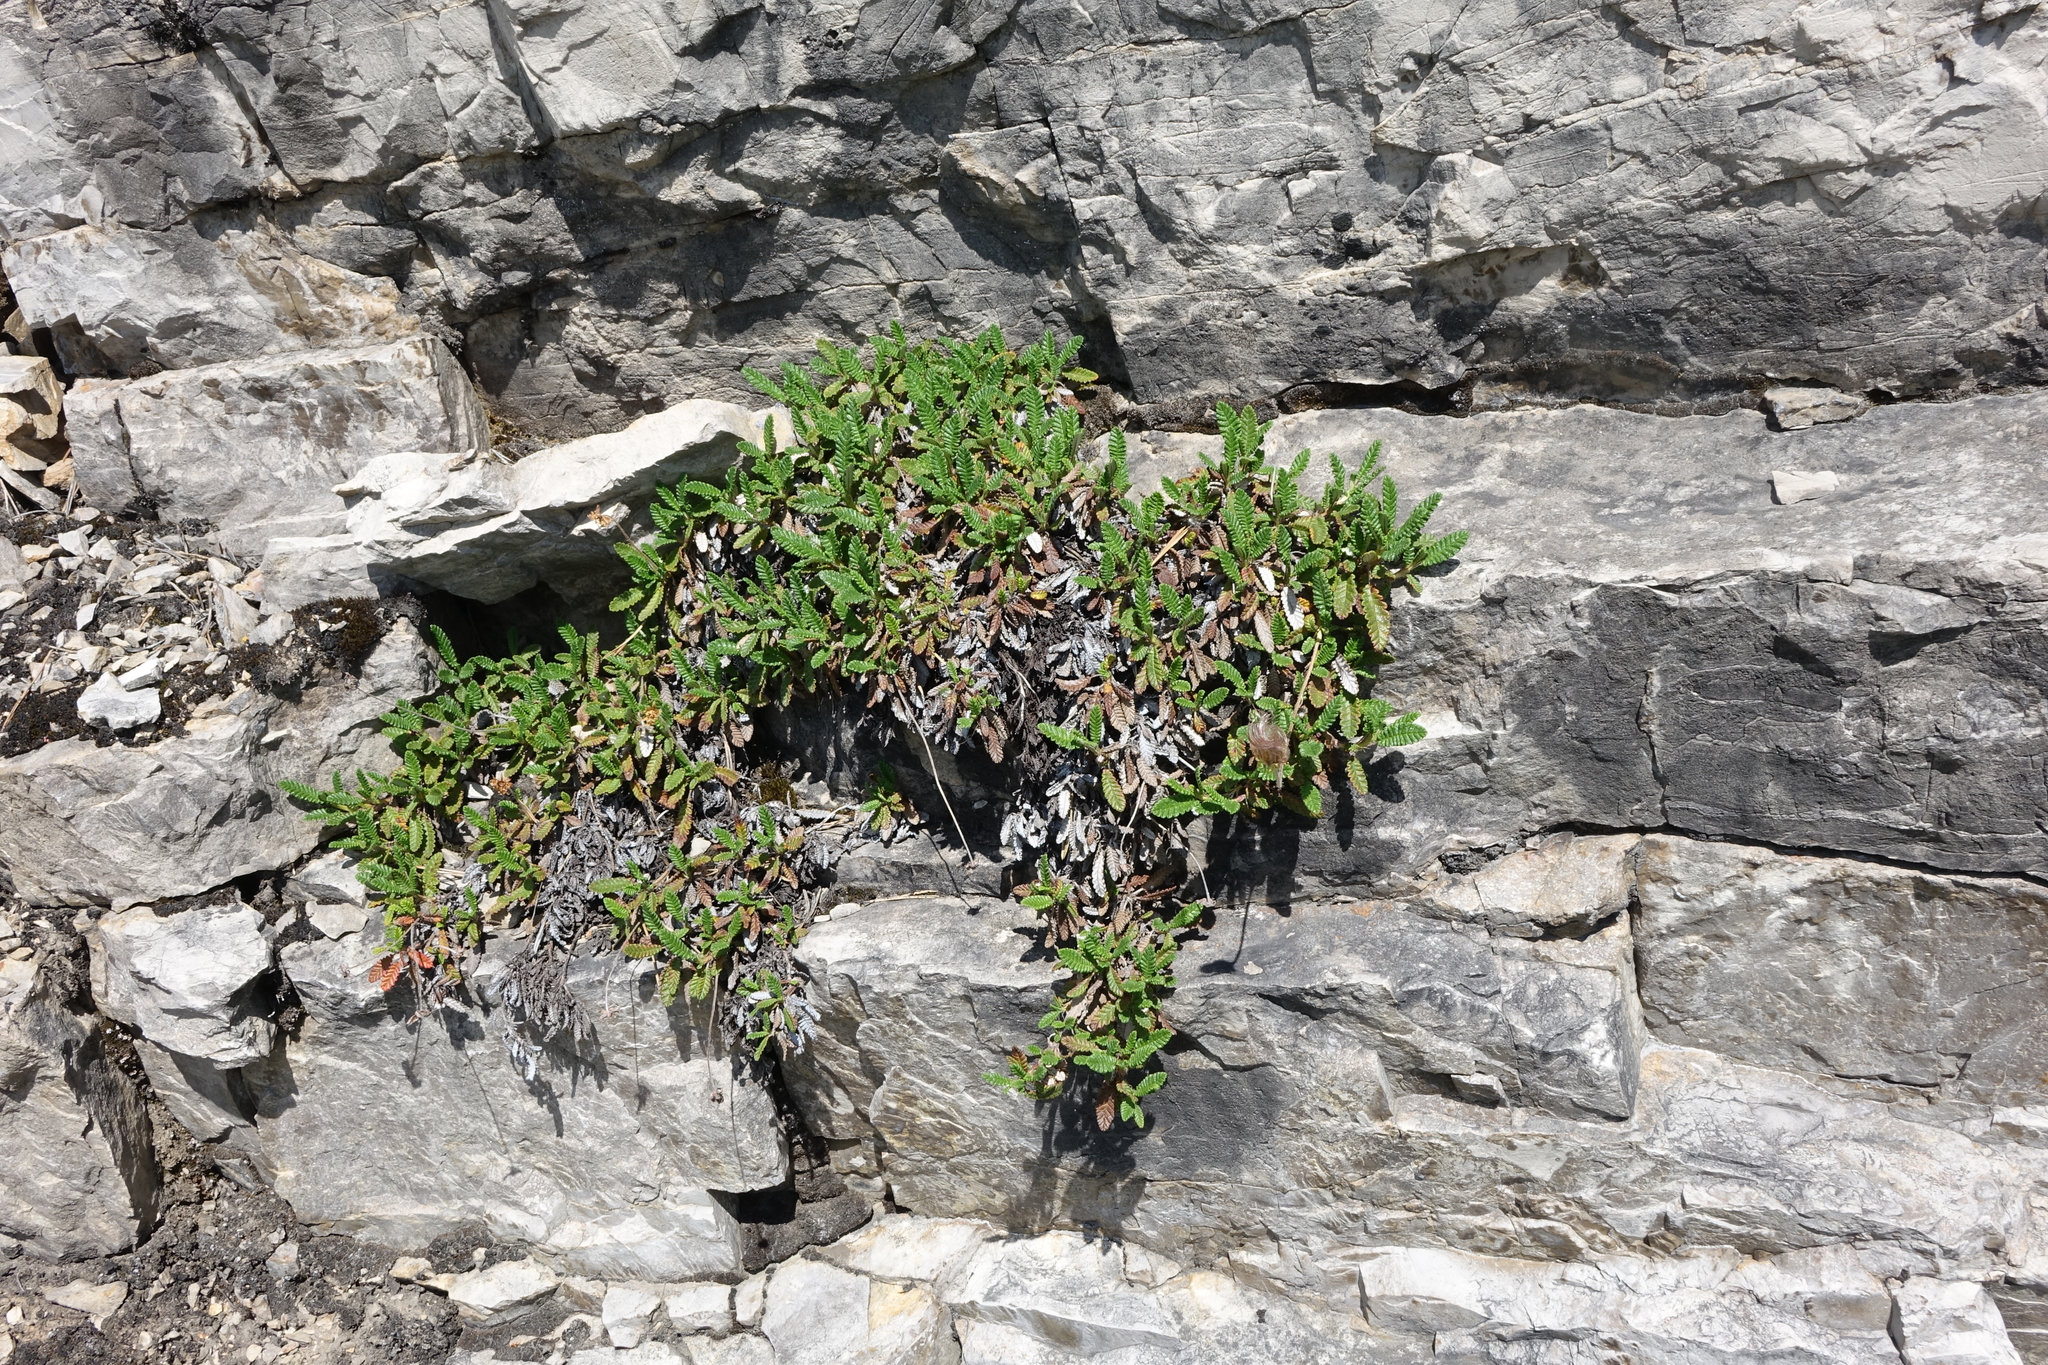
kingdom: Plantae
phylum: Tracheophyta
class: Magnoliopsida
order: Rosales
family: Rosaceae
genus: Dryas
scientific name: Dryas octopetala
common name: Eight-petal mountain-avens
